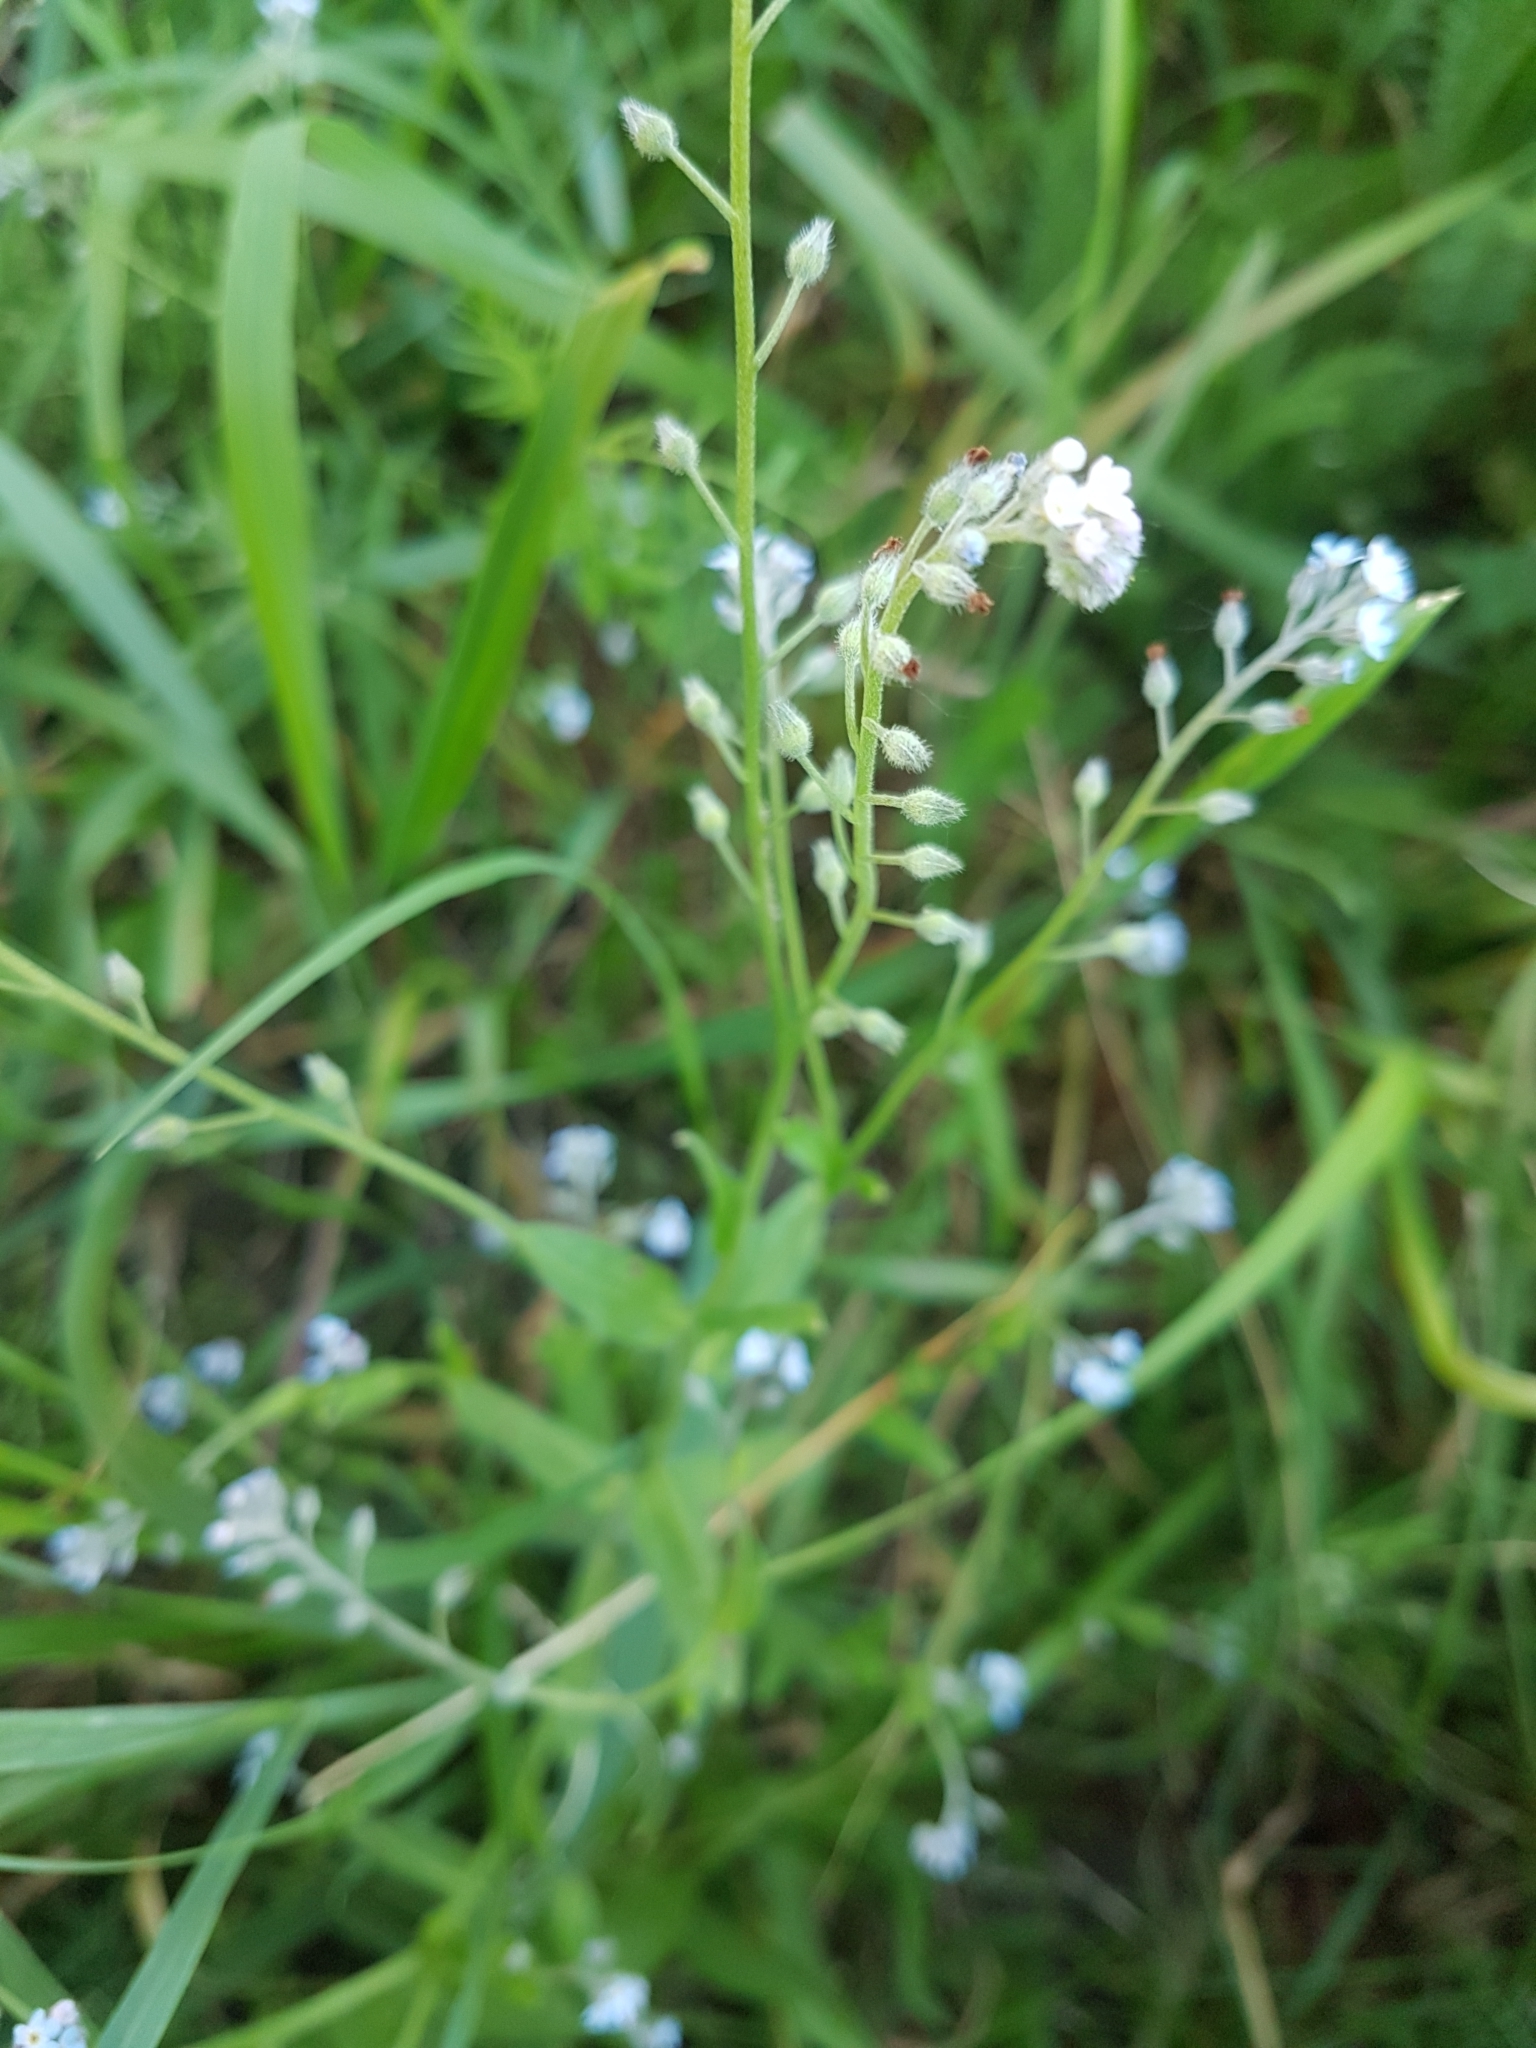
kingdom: Plantae
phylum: Tracheophyta
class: Magnoliopsida
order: Boraginales
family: Boraginaceae
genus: Myosotis
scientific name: Myosotis arvensis
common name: Field forget-me-not
